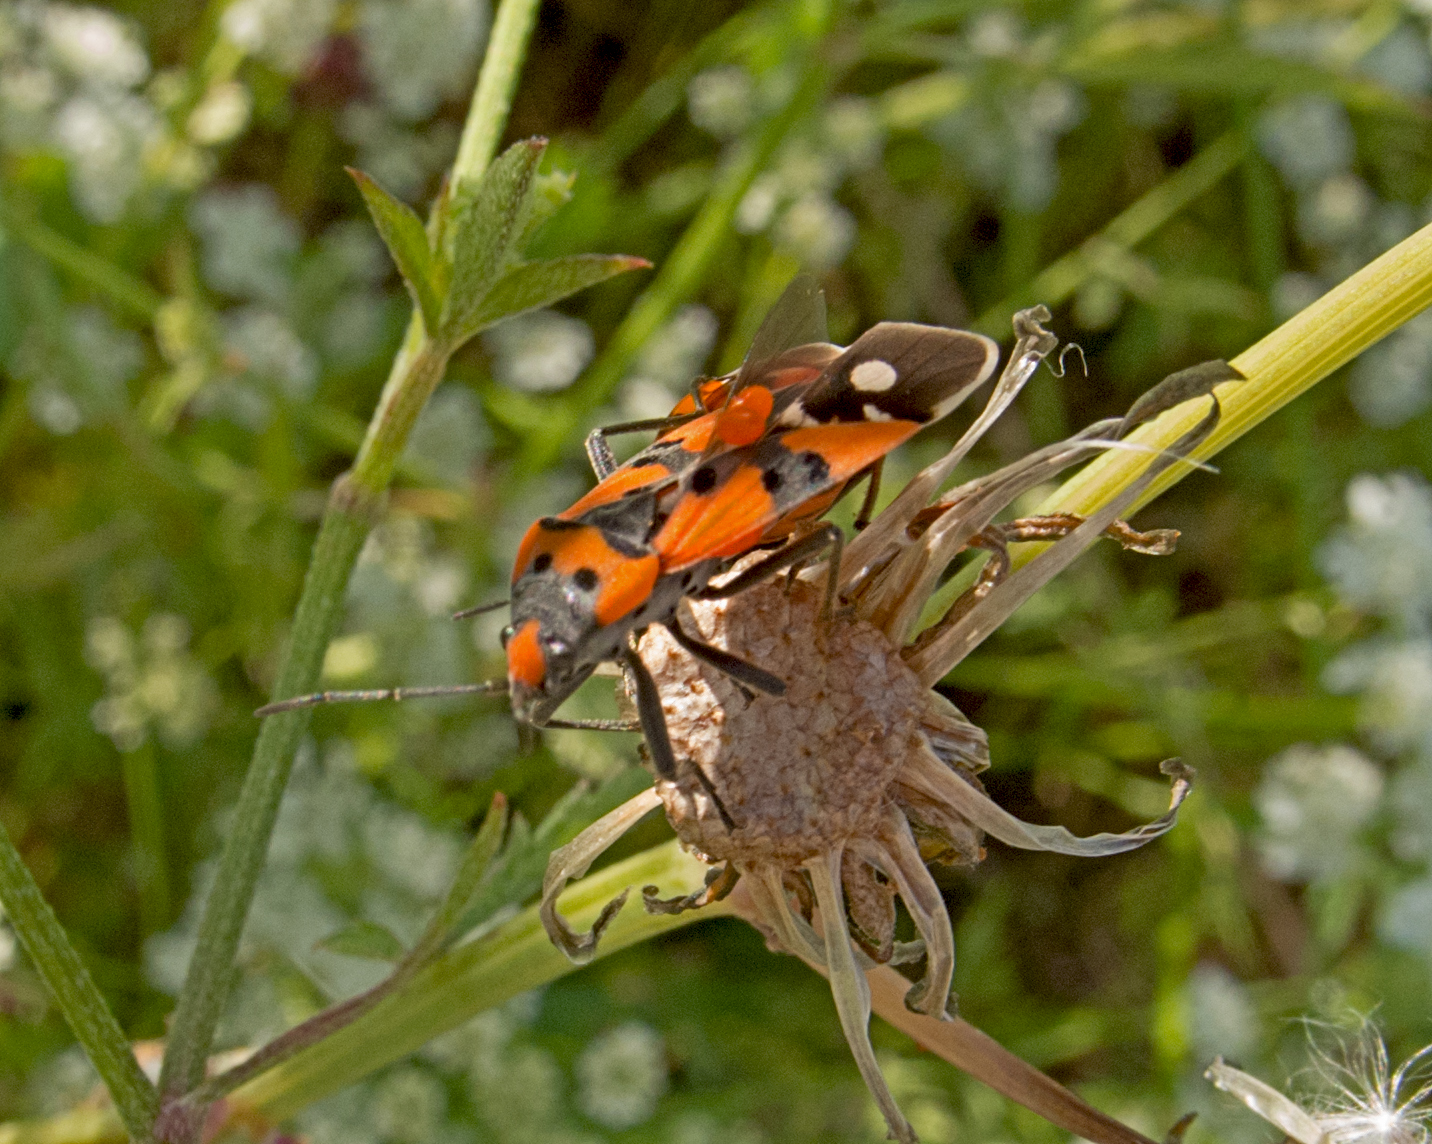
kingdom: Animalia
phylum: Arthropoda
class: Insecta
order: Hemiptera
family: Lygaeidae
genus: Lygaeus
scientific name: Lygaeus equestris
